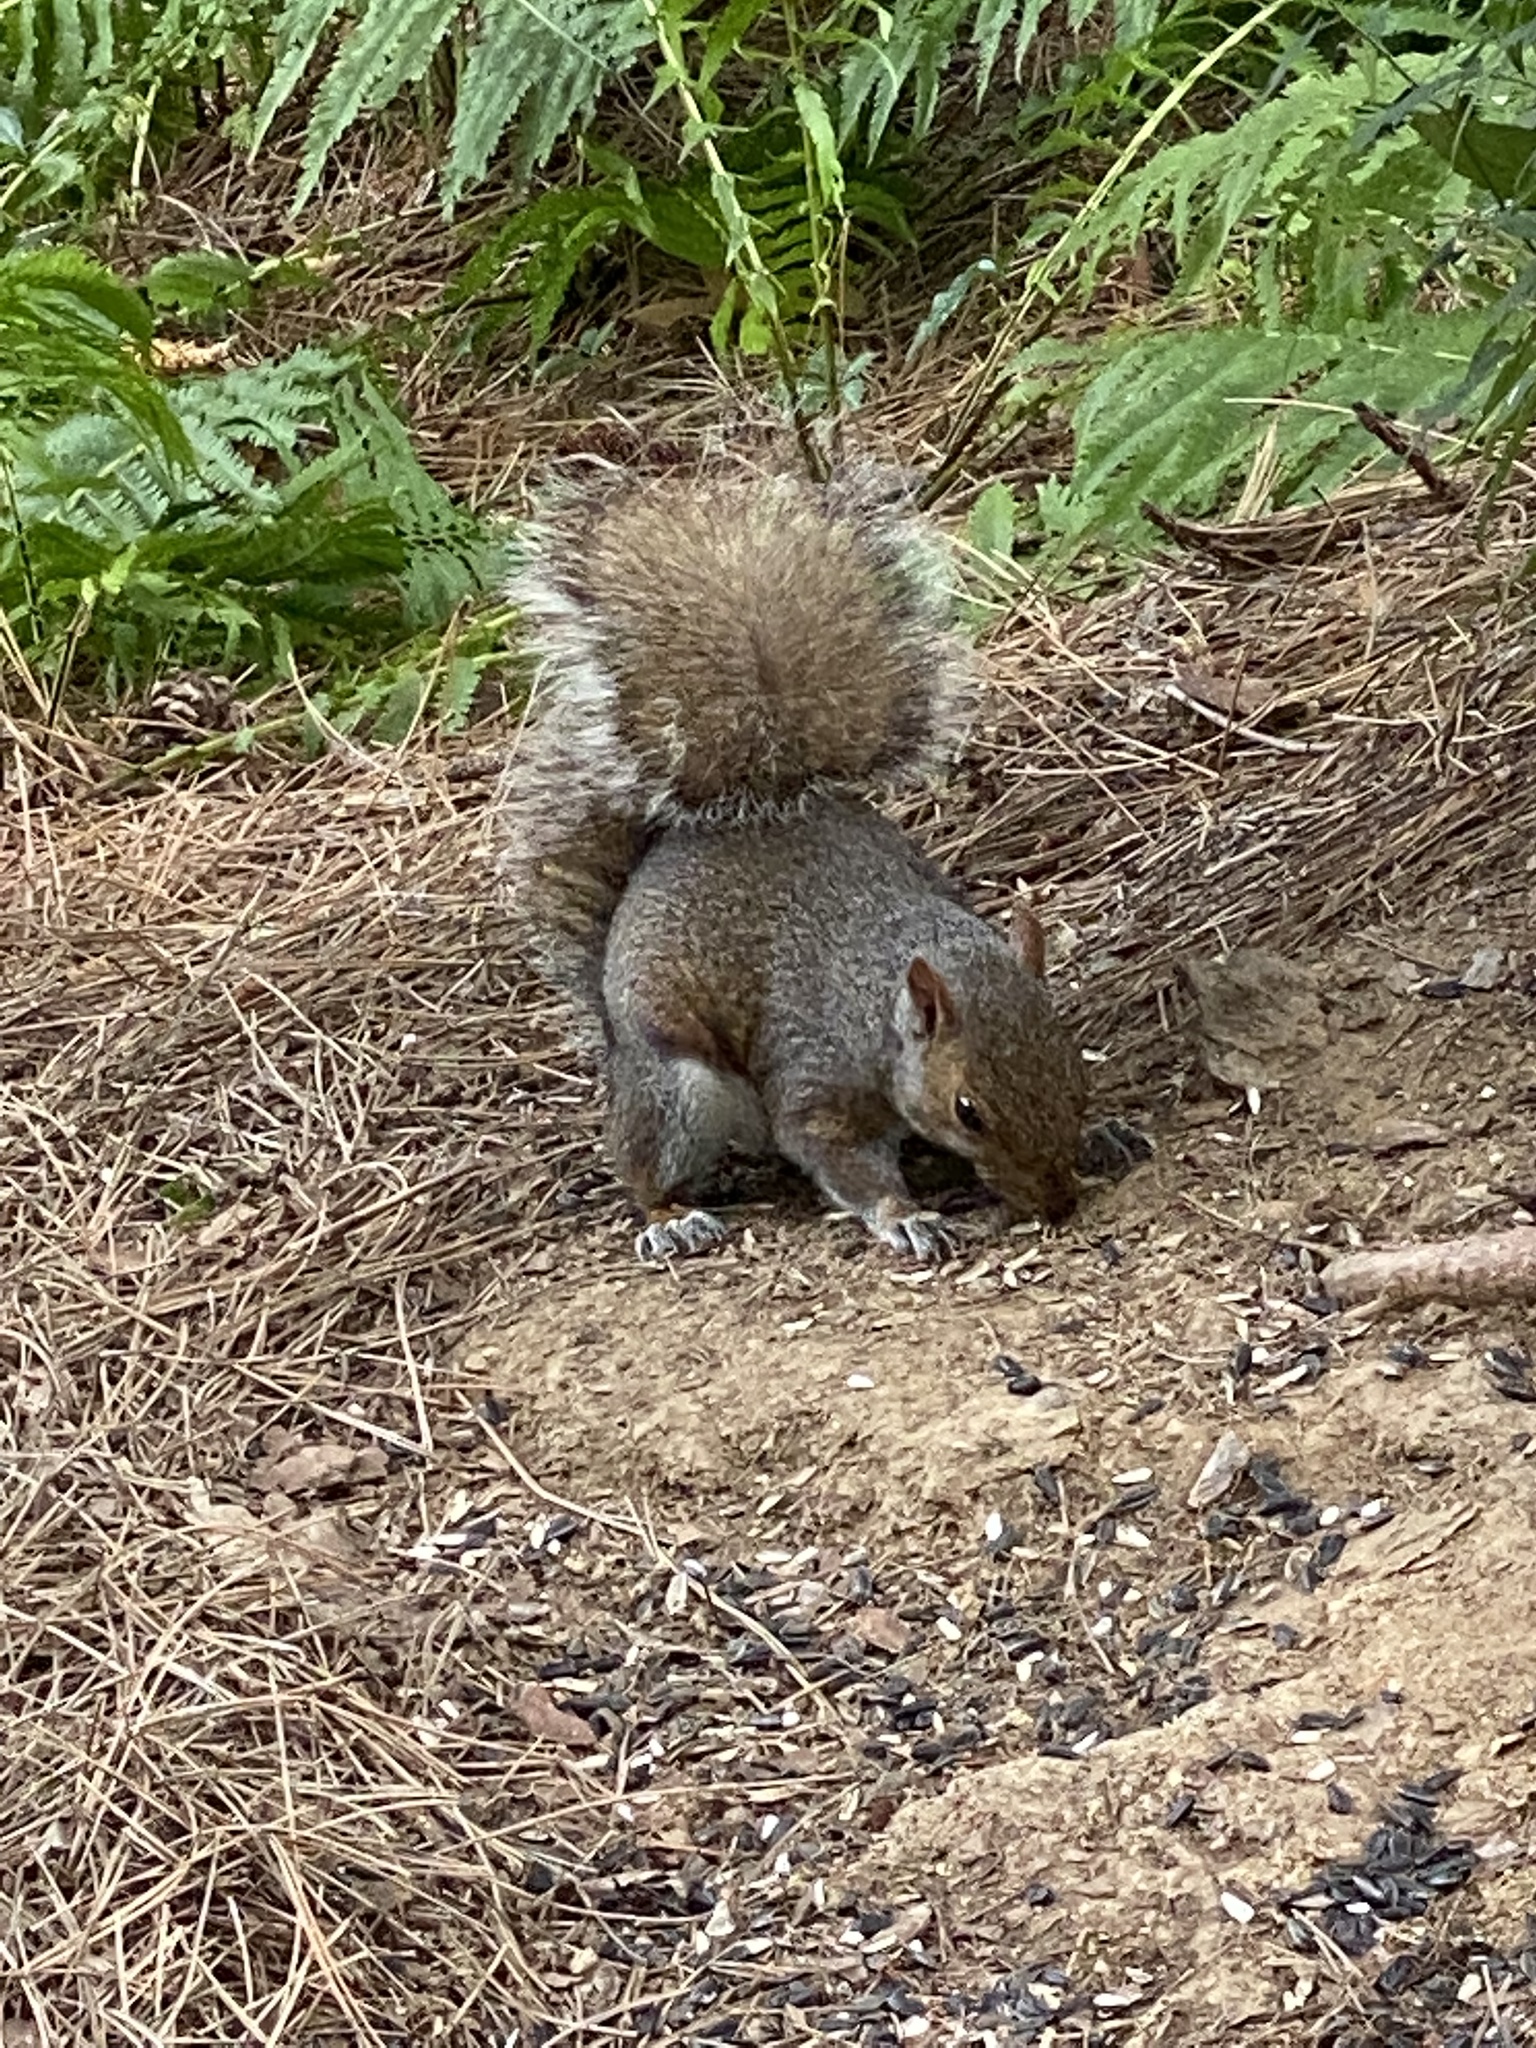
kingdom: Animalia
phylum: Chordata
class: Mammalia
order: Rodentia
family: Sciuridae
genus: Sciurus
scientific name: Sciurus carolinensis
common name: Eastern gray squirrel
